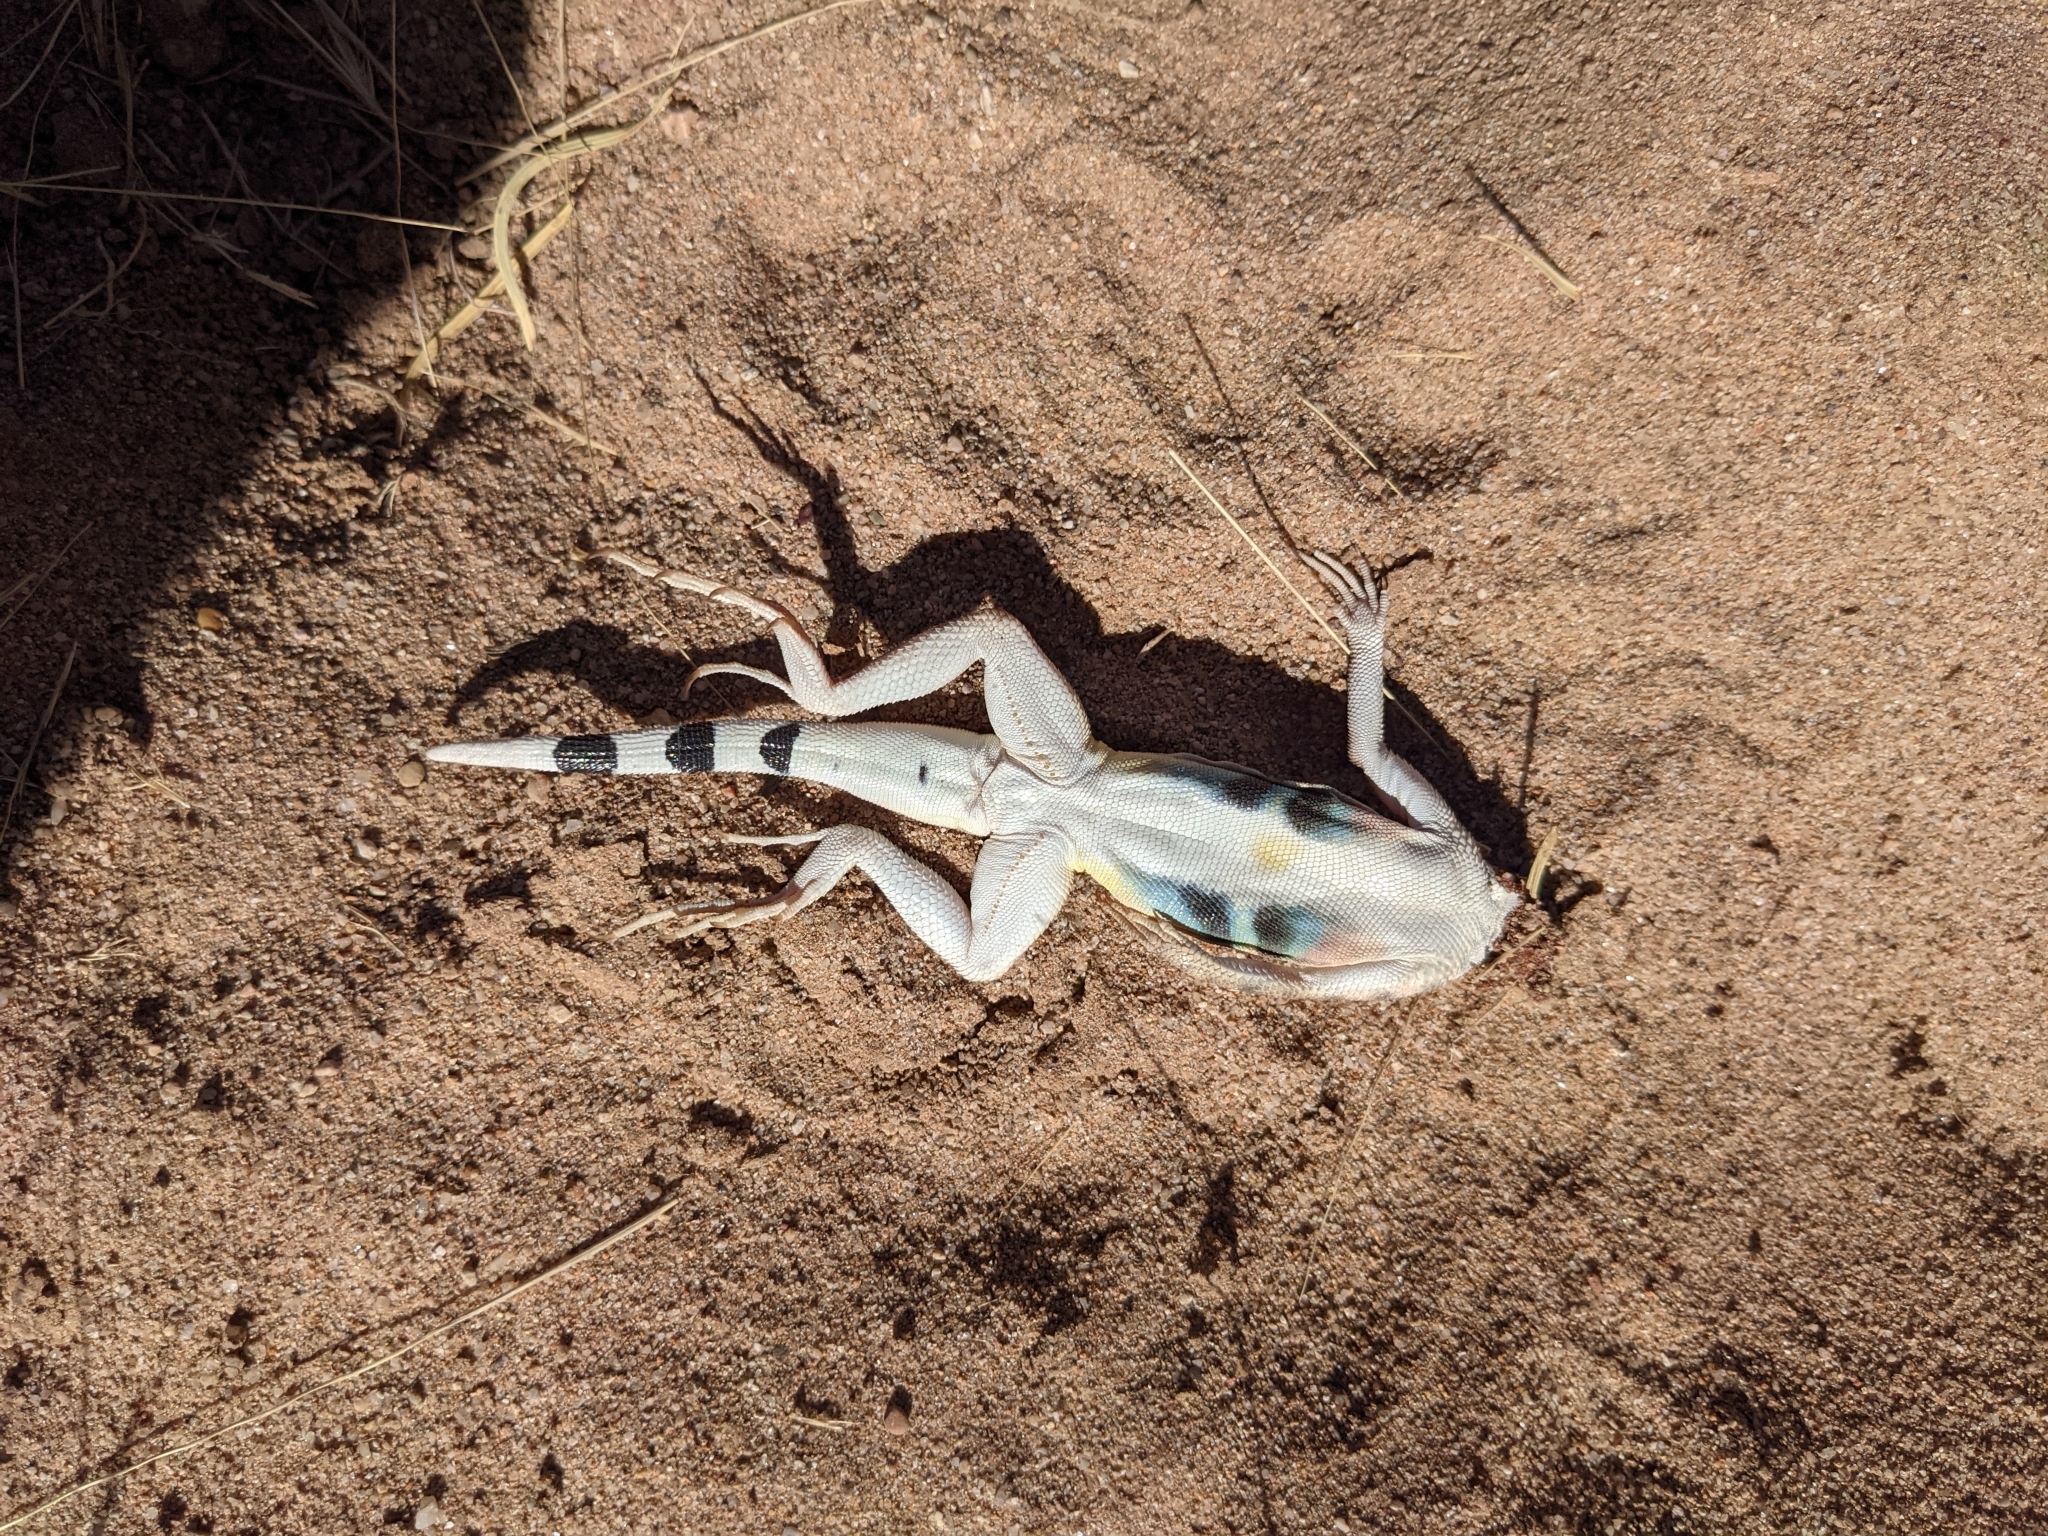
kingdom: Animalia
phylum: Chordata
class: Squamata
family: Phrynosomatidae
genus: Callisaurus
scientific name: Callisaurus draconoides
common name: Zebra-tailed lizard
